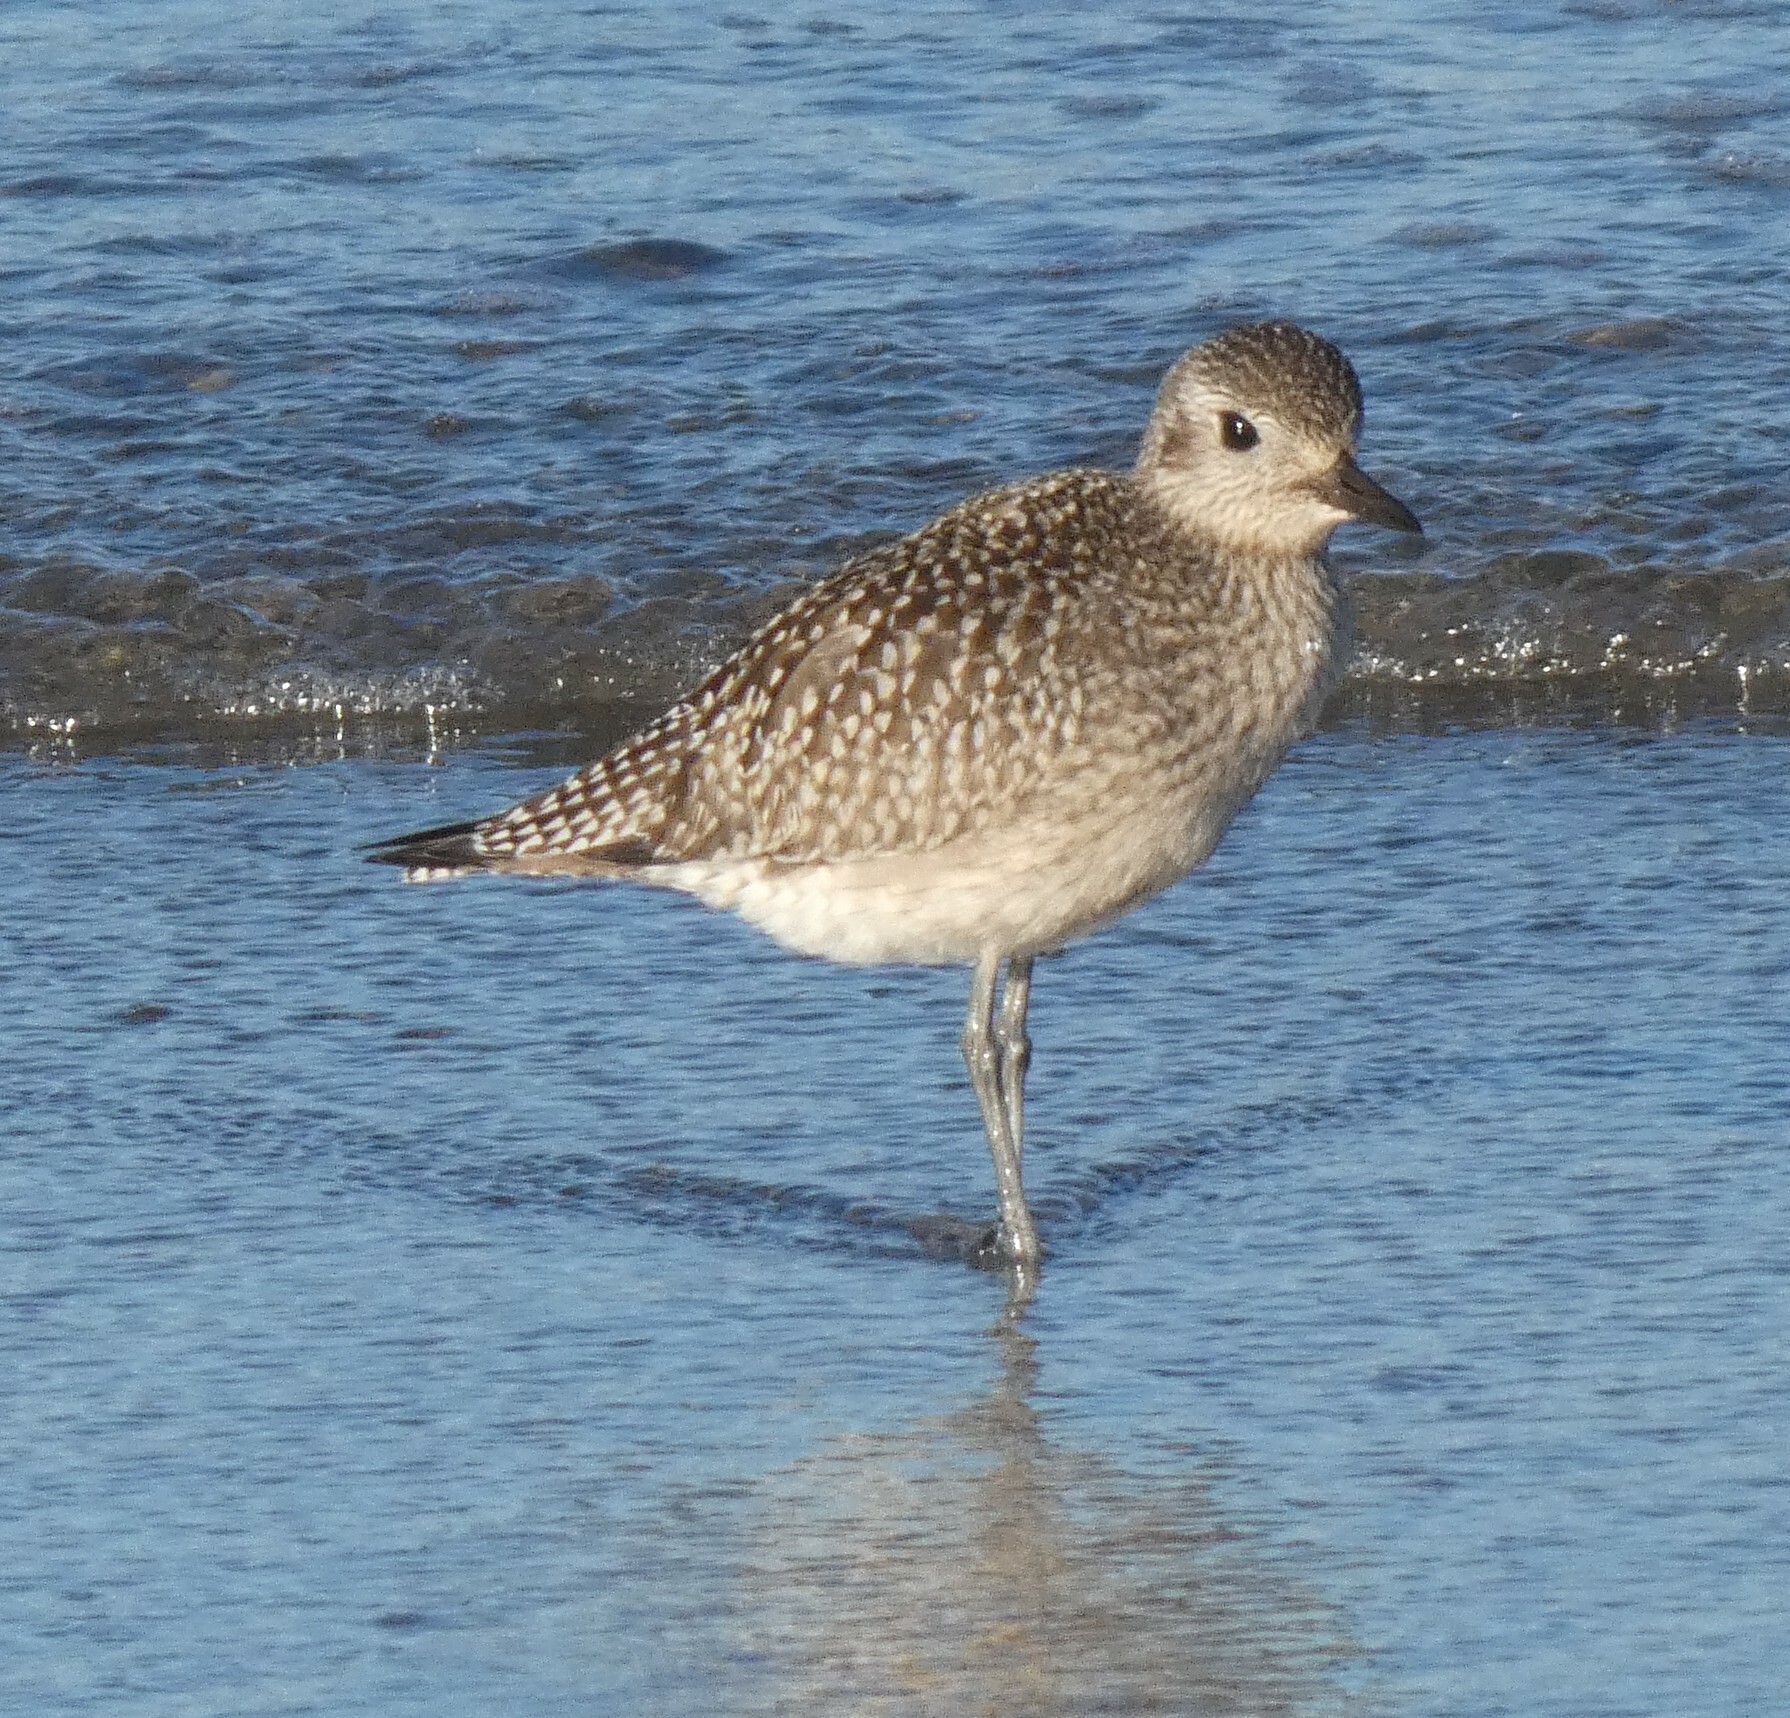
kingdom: Animalia
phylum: Chordata
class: Aves
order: Charadriiformes
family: Charadriidae
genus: Pluvialis
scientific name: Pluvialis squatarola
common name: Grey plover
